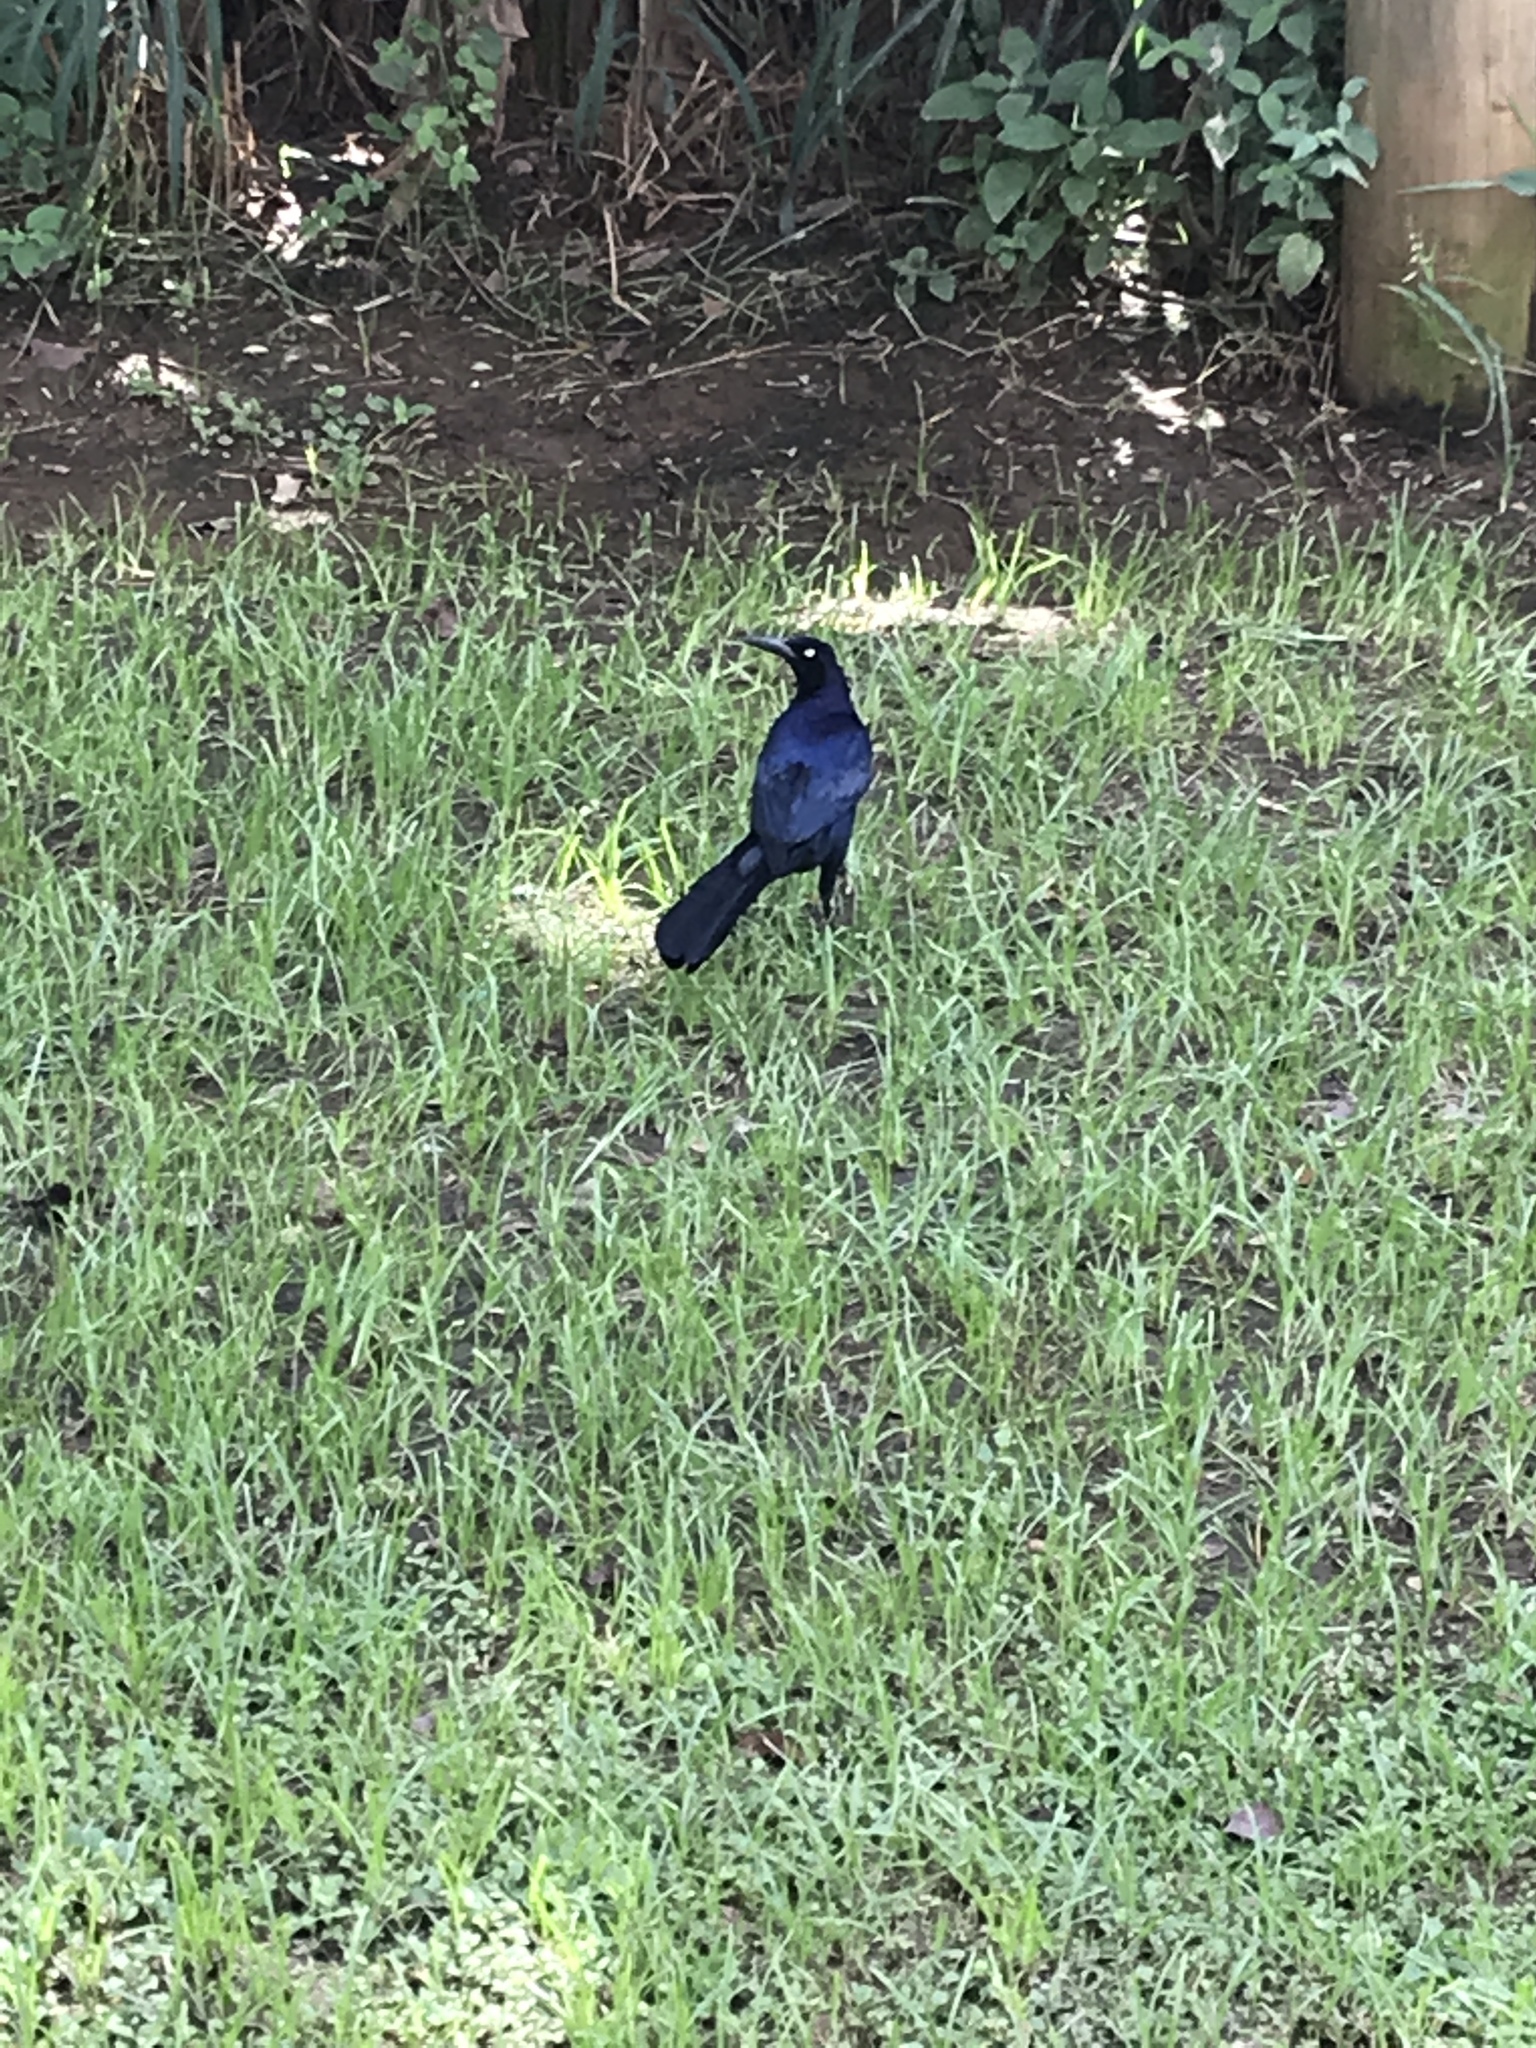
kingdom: Animalia
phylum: Chordata
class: Aves
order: Passeriformes
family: Icteridae
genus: Quiscalus
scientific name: Quiscalus mexicanus
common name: Great-tailed grackle
